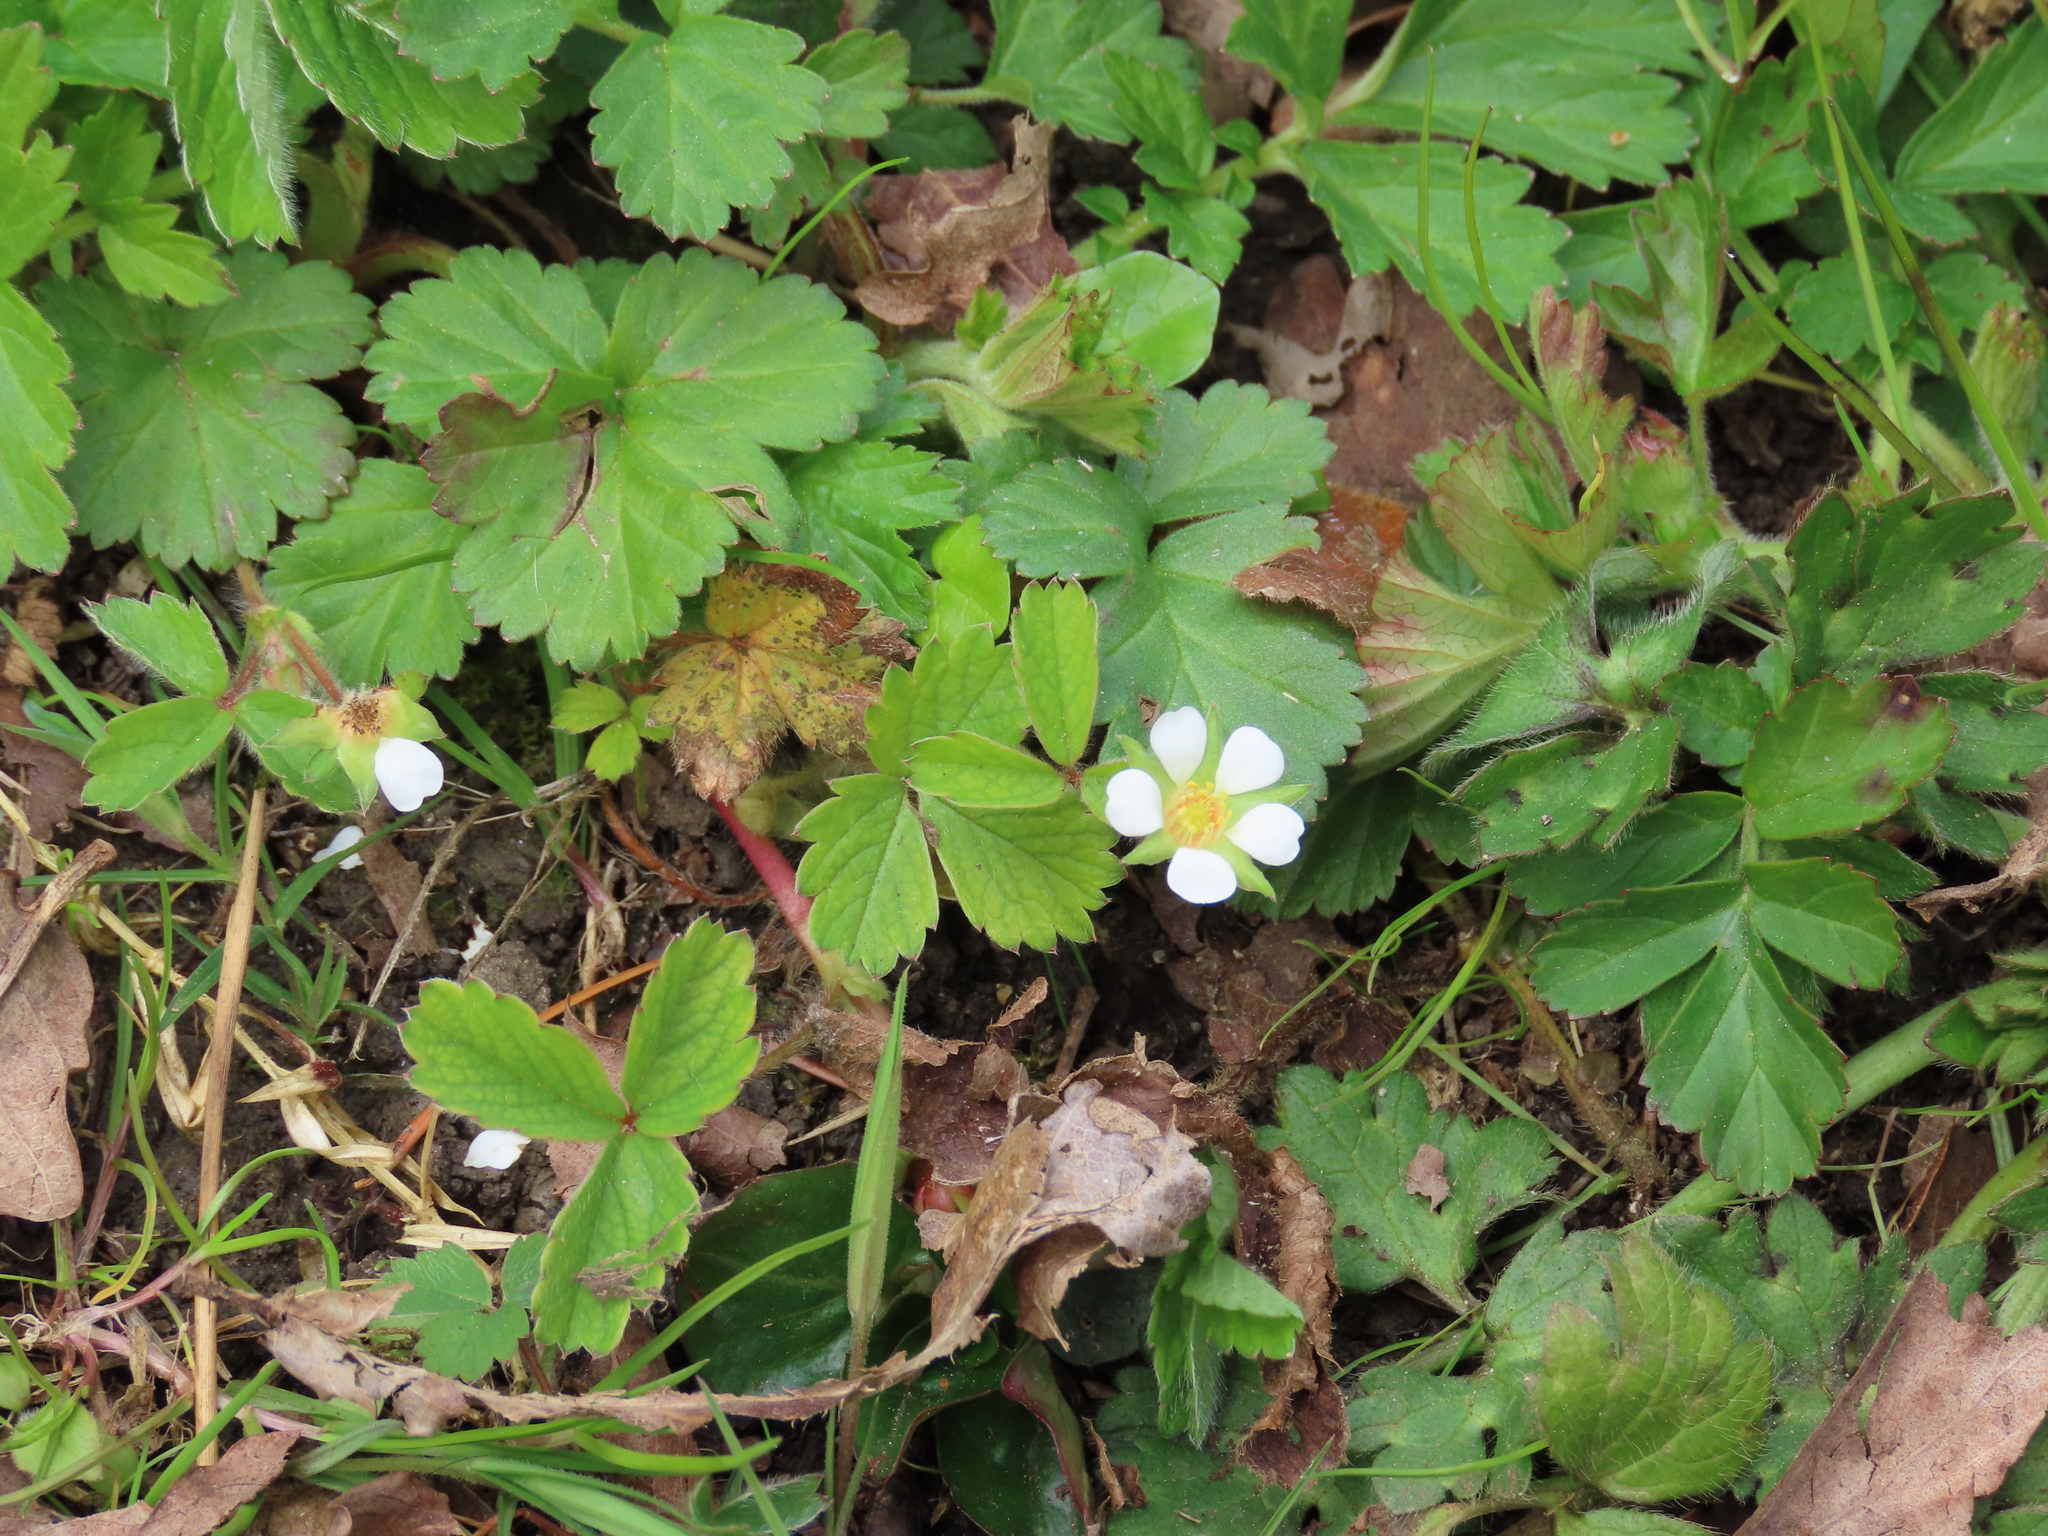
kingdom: Plantae
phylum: Tracheophyta
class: Magnoliopsida
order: Rosales
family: Rosaceae
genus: Potentilla
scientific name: Potentilla sterilis
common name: Barren strawberry
